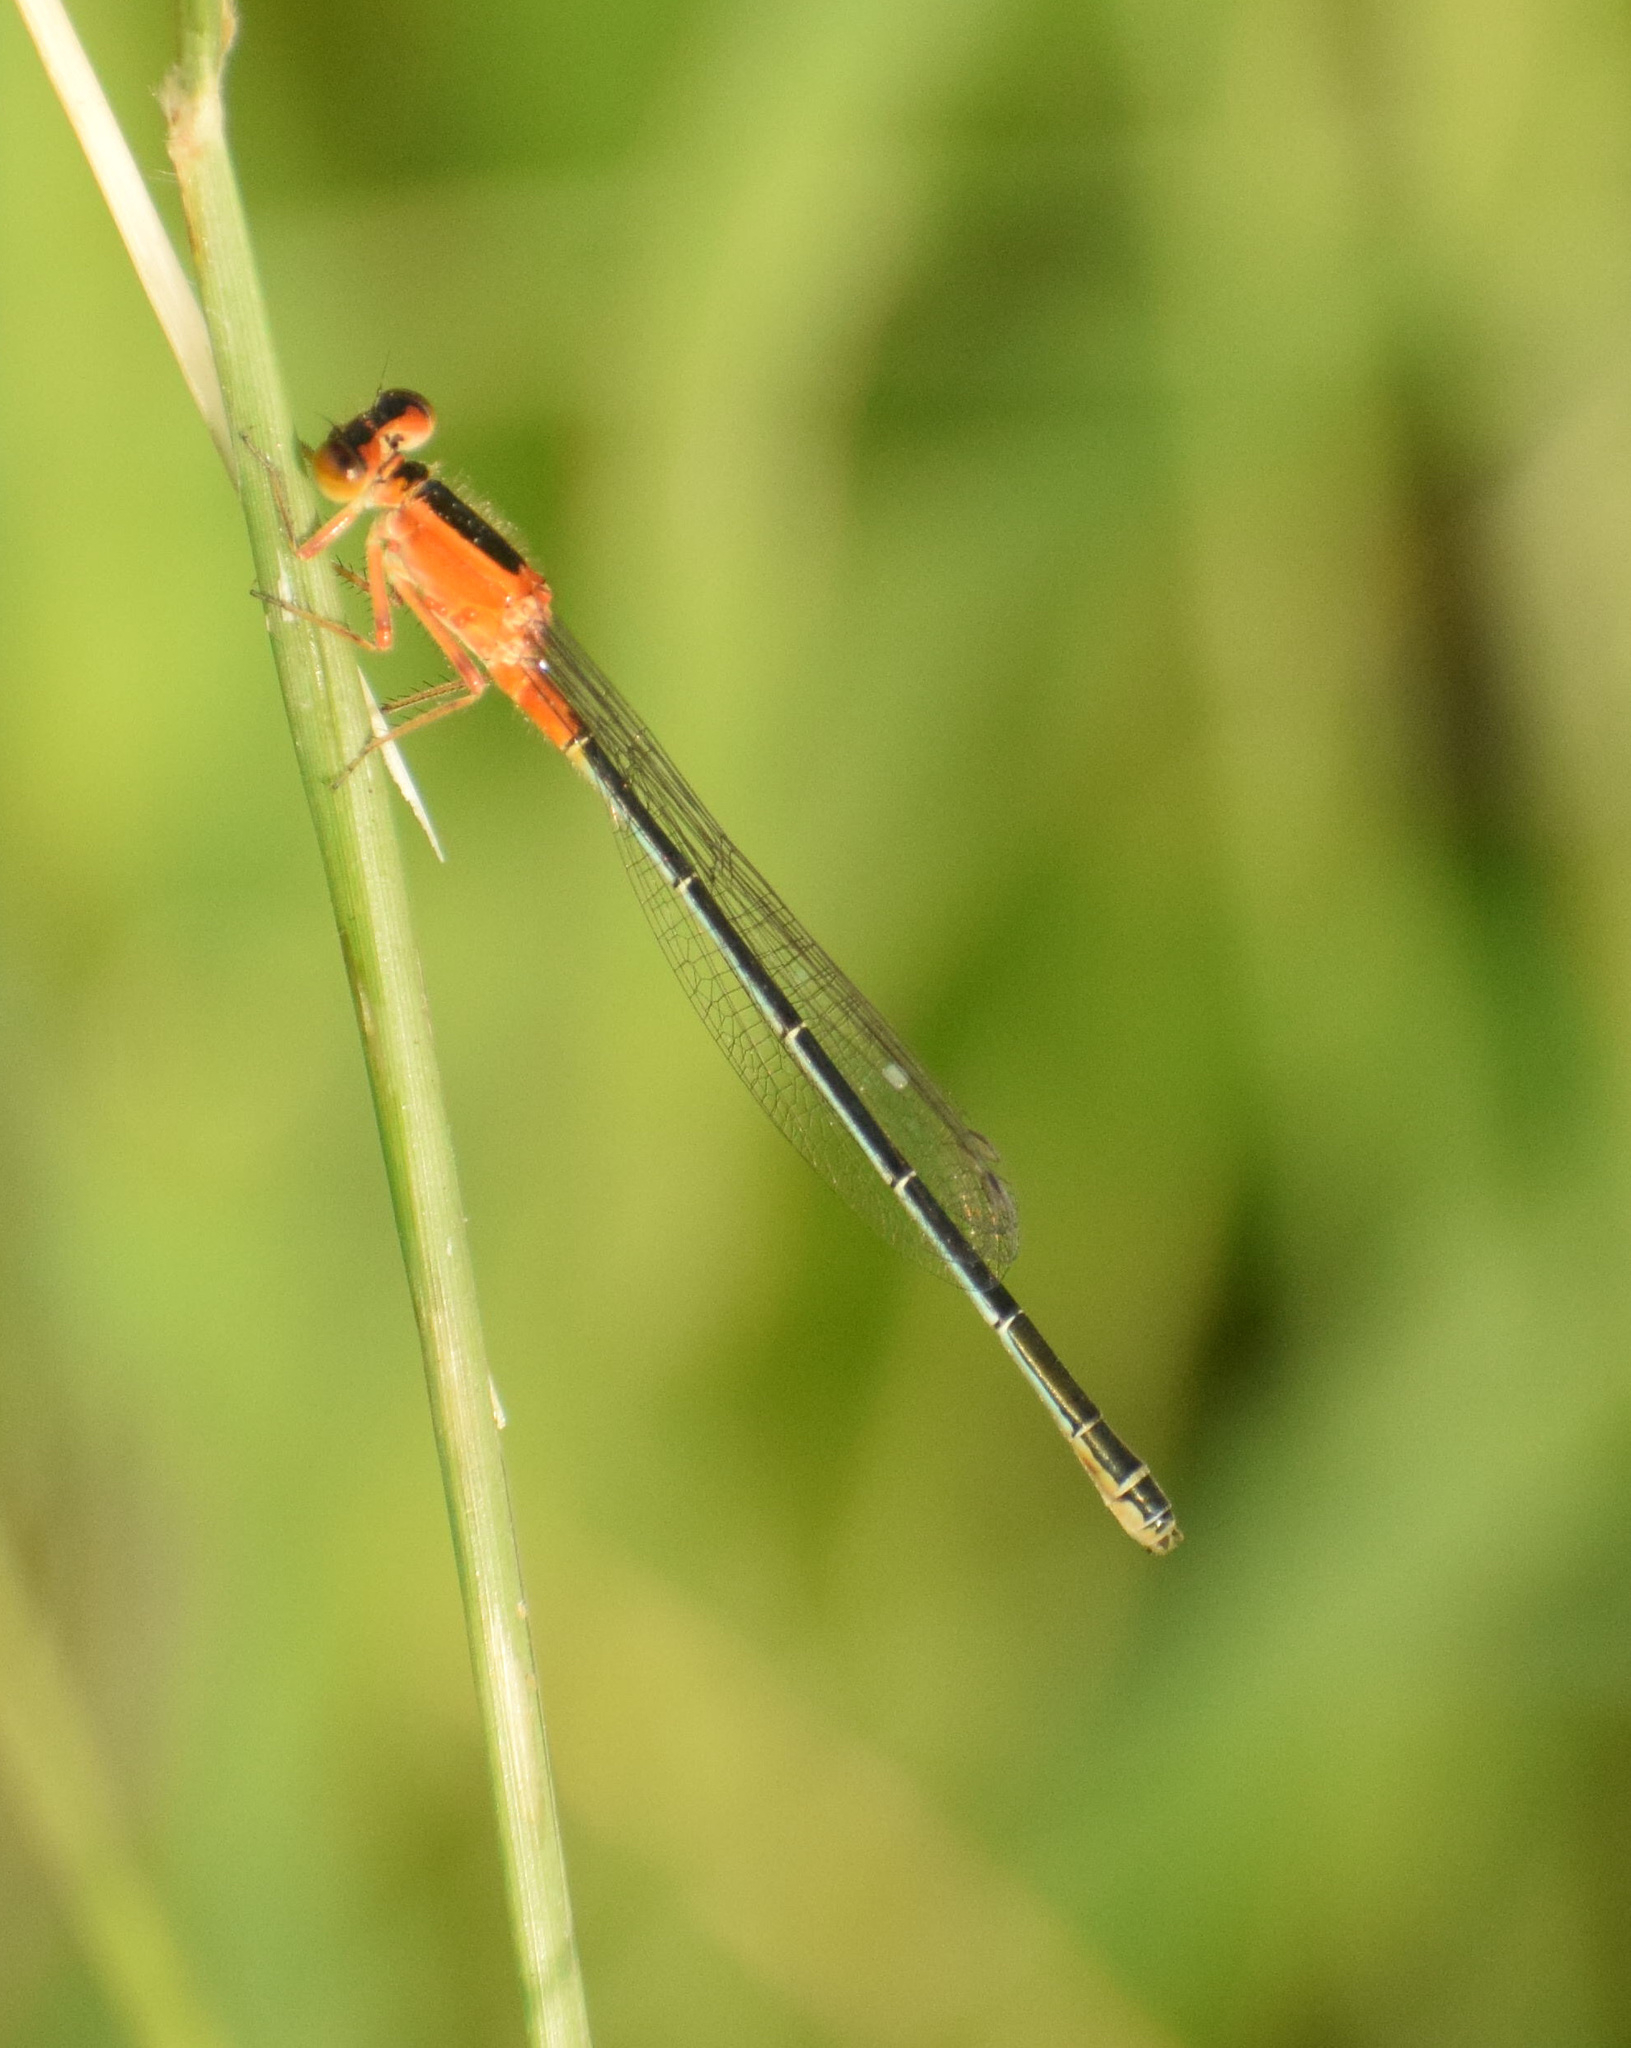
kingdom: Animalia
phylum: Arthropoda
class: Insecta
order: Odonata
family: Coenagrionidae
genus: Ischnura
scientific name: Ischnura senegalensis
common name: Tropical bluetail
